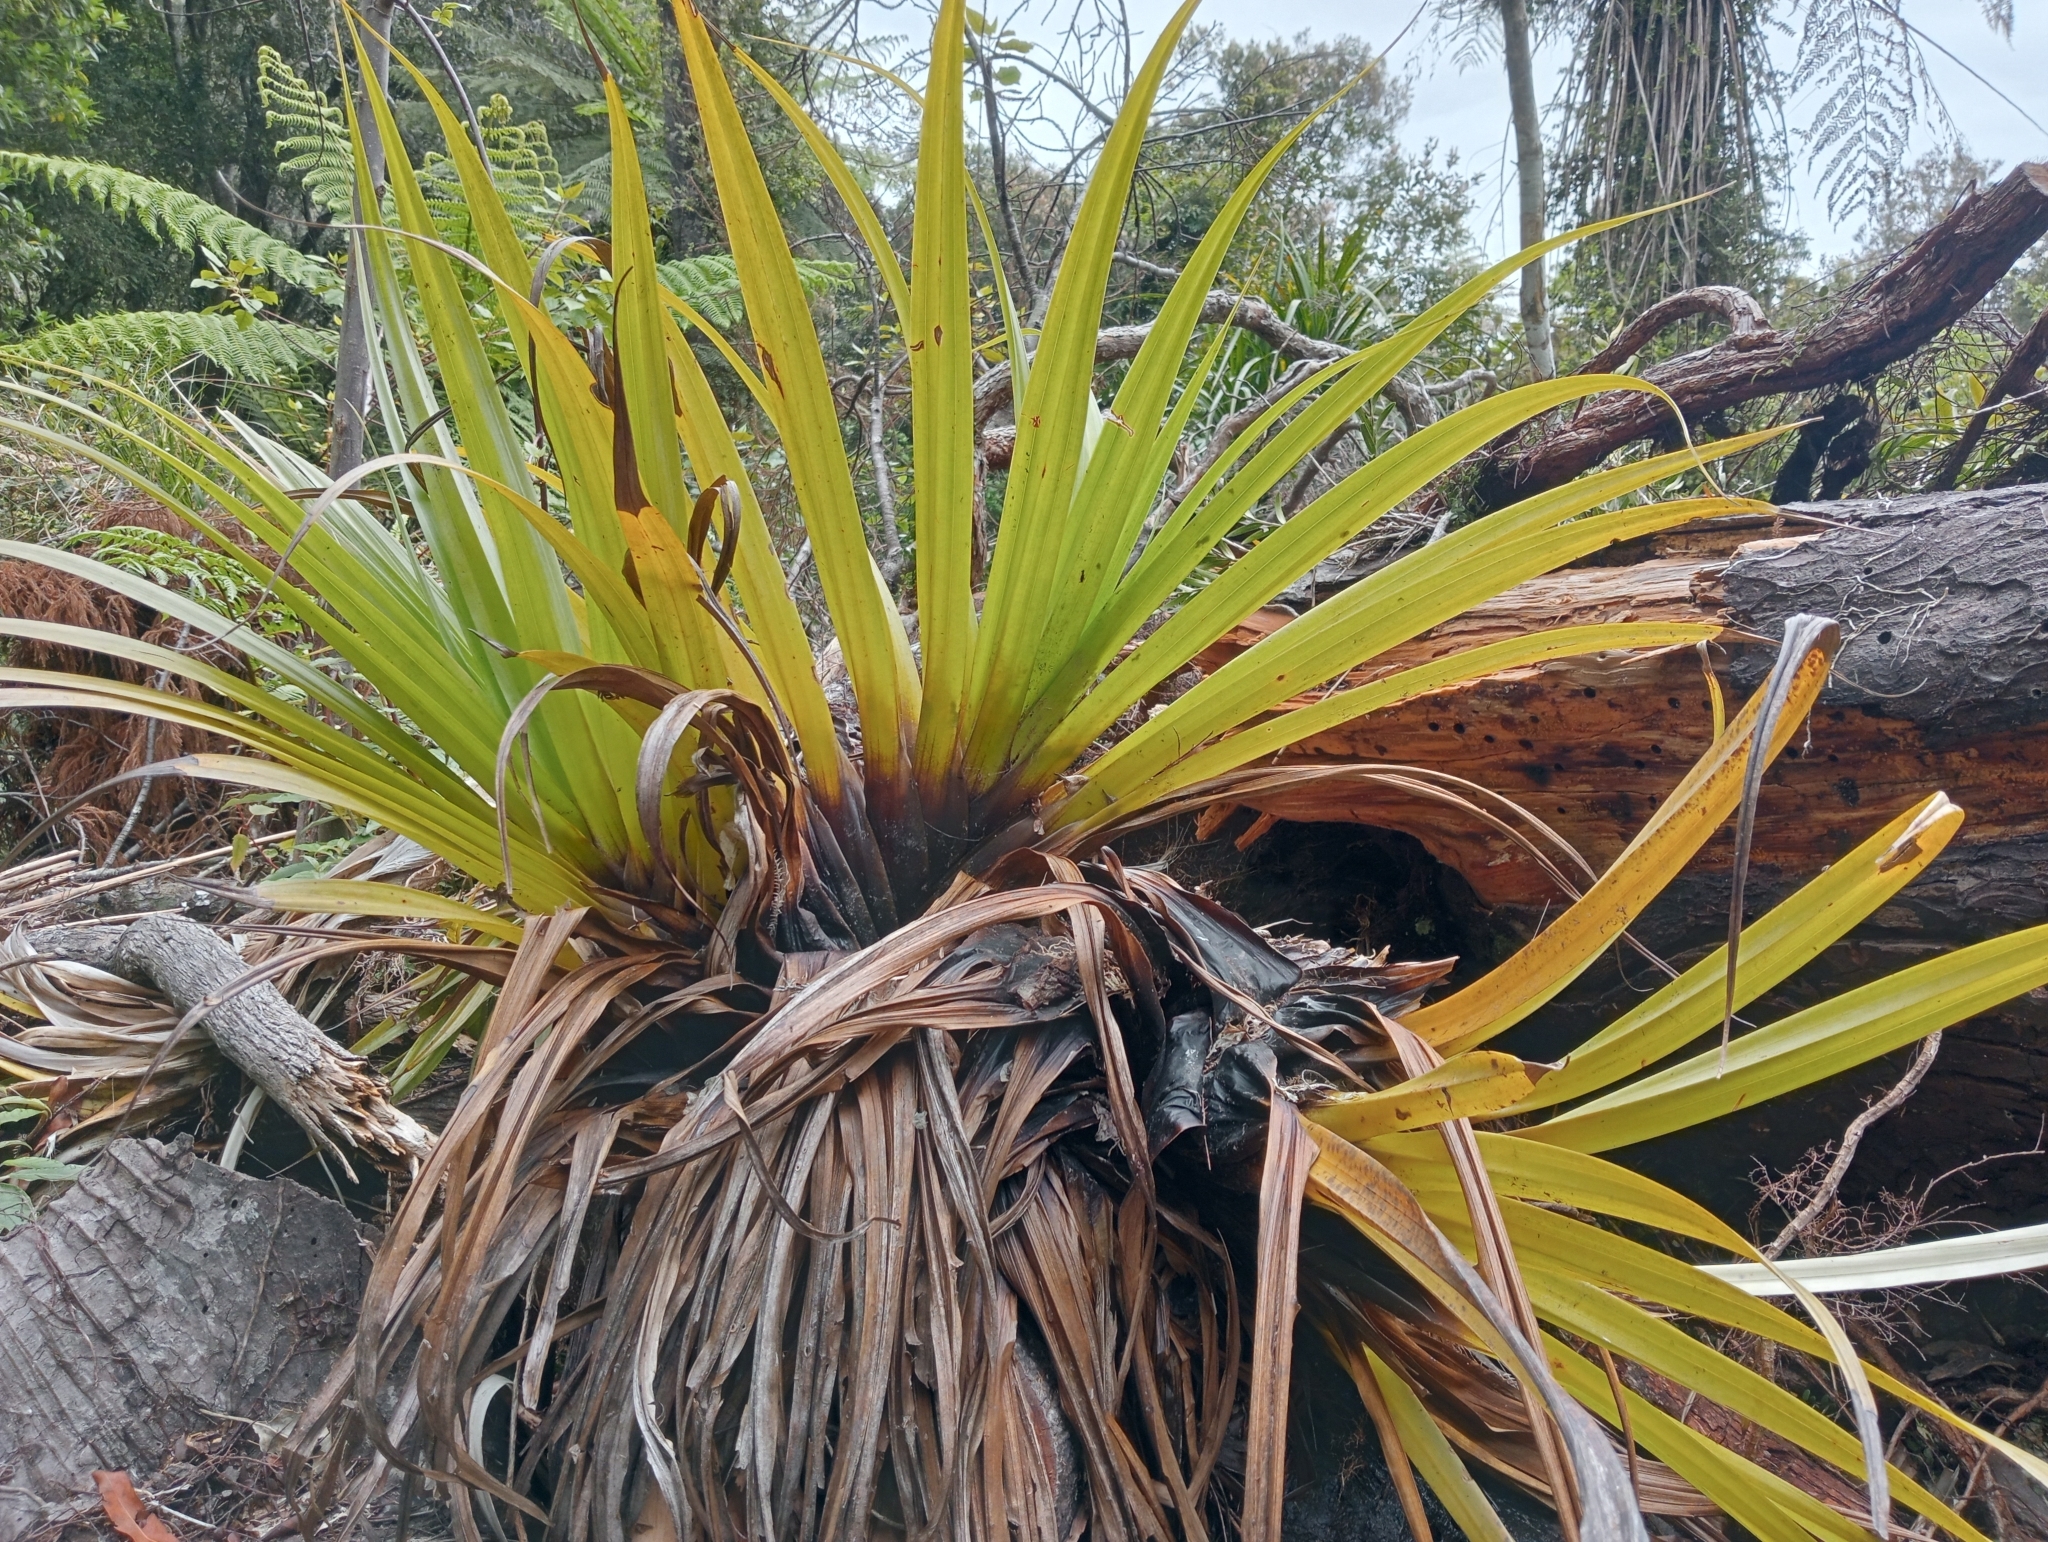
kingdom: Plantae
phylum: Tracheophyta
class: Liliopsida
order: Asparagales
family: Asteliaceae
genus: Astelia
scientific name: Astelia hastata
